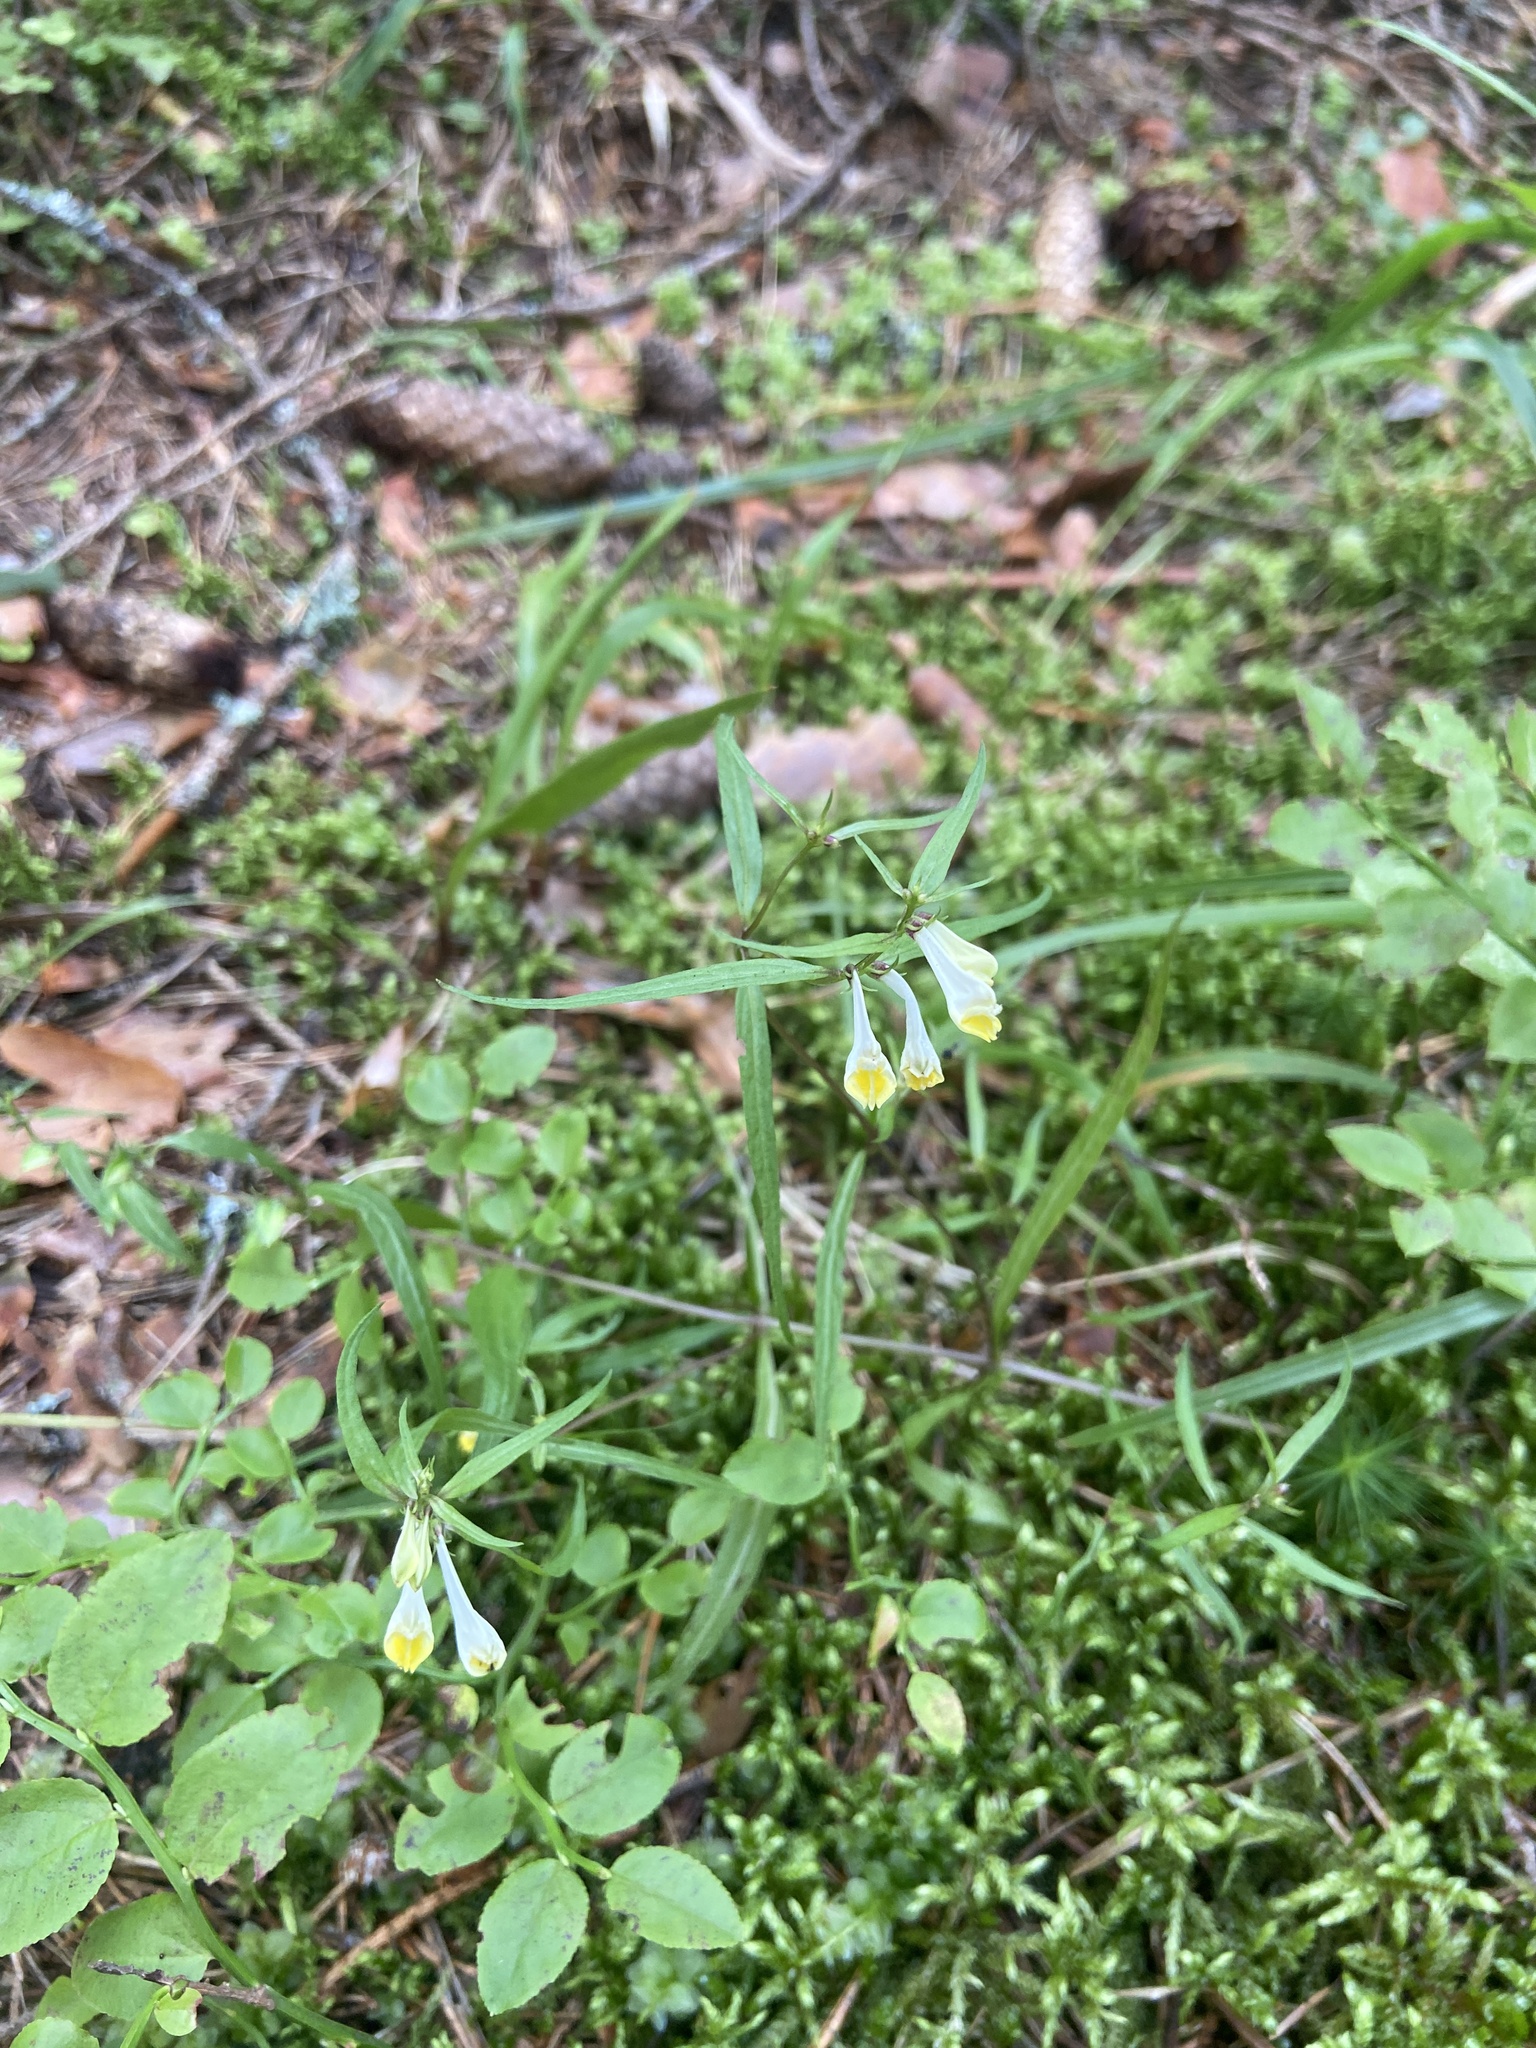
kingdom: Plantae
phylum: Tracheophyta
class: Magnoliopsida
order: Lamiales
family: Orobanchaceae
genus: Melampyrum
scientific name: Melampyrum pratense
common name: Common cow-wheat
